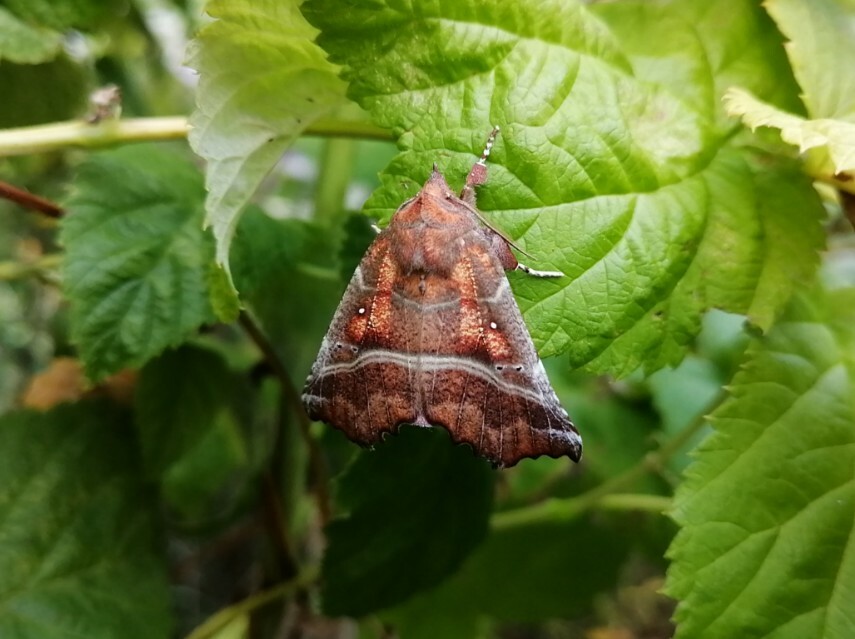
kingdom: Animalia
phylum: Arthropoda
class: Insecta
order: Lepidoptera
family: Erebidae
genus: Scoliopteryx
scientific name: Scoliopteryx libatrix
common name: Herald
